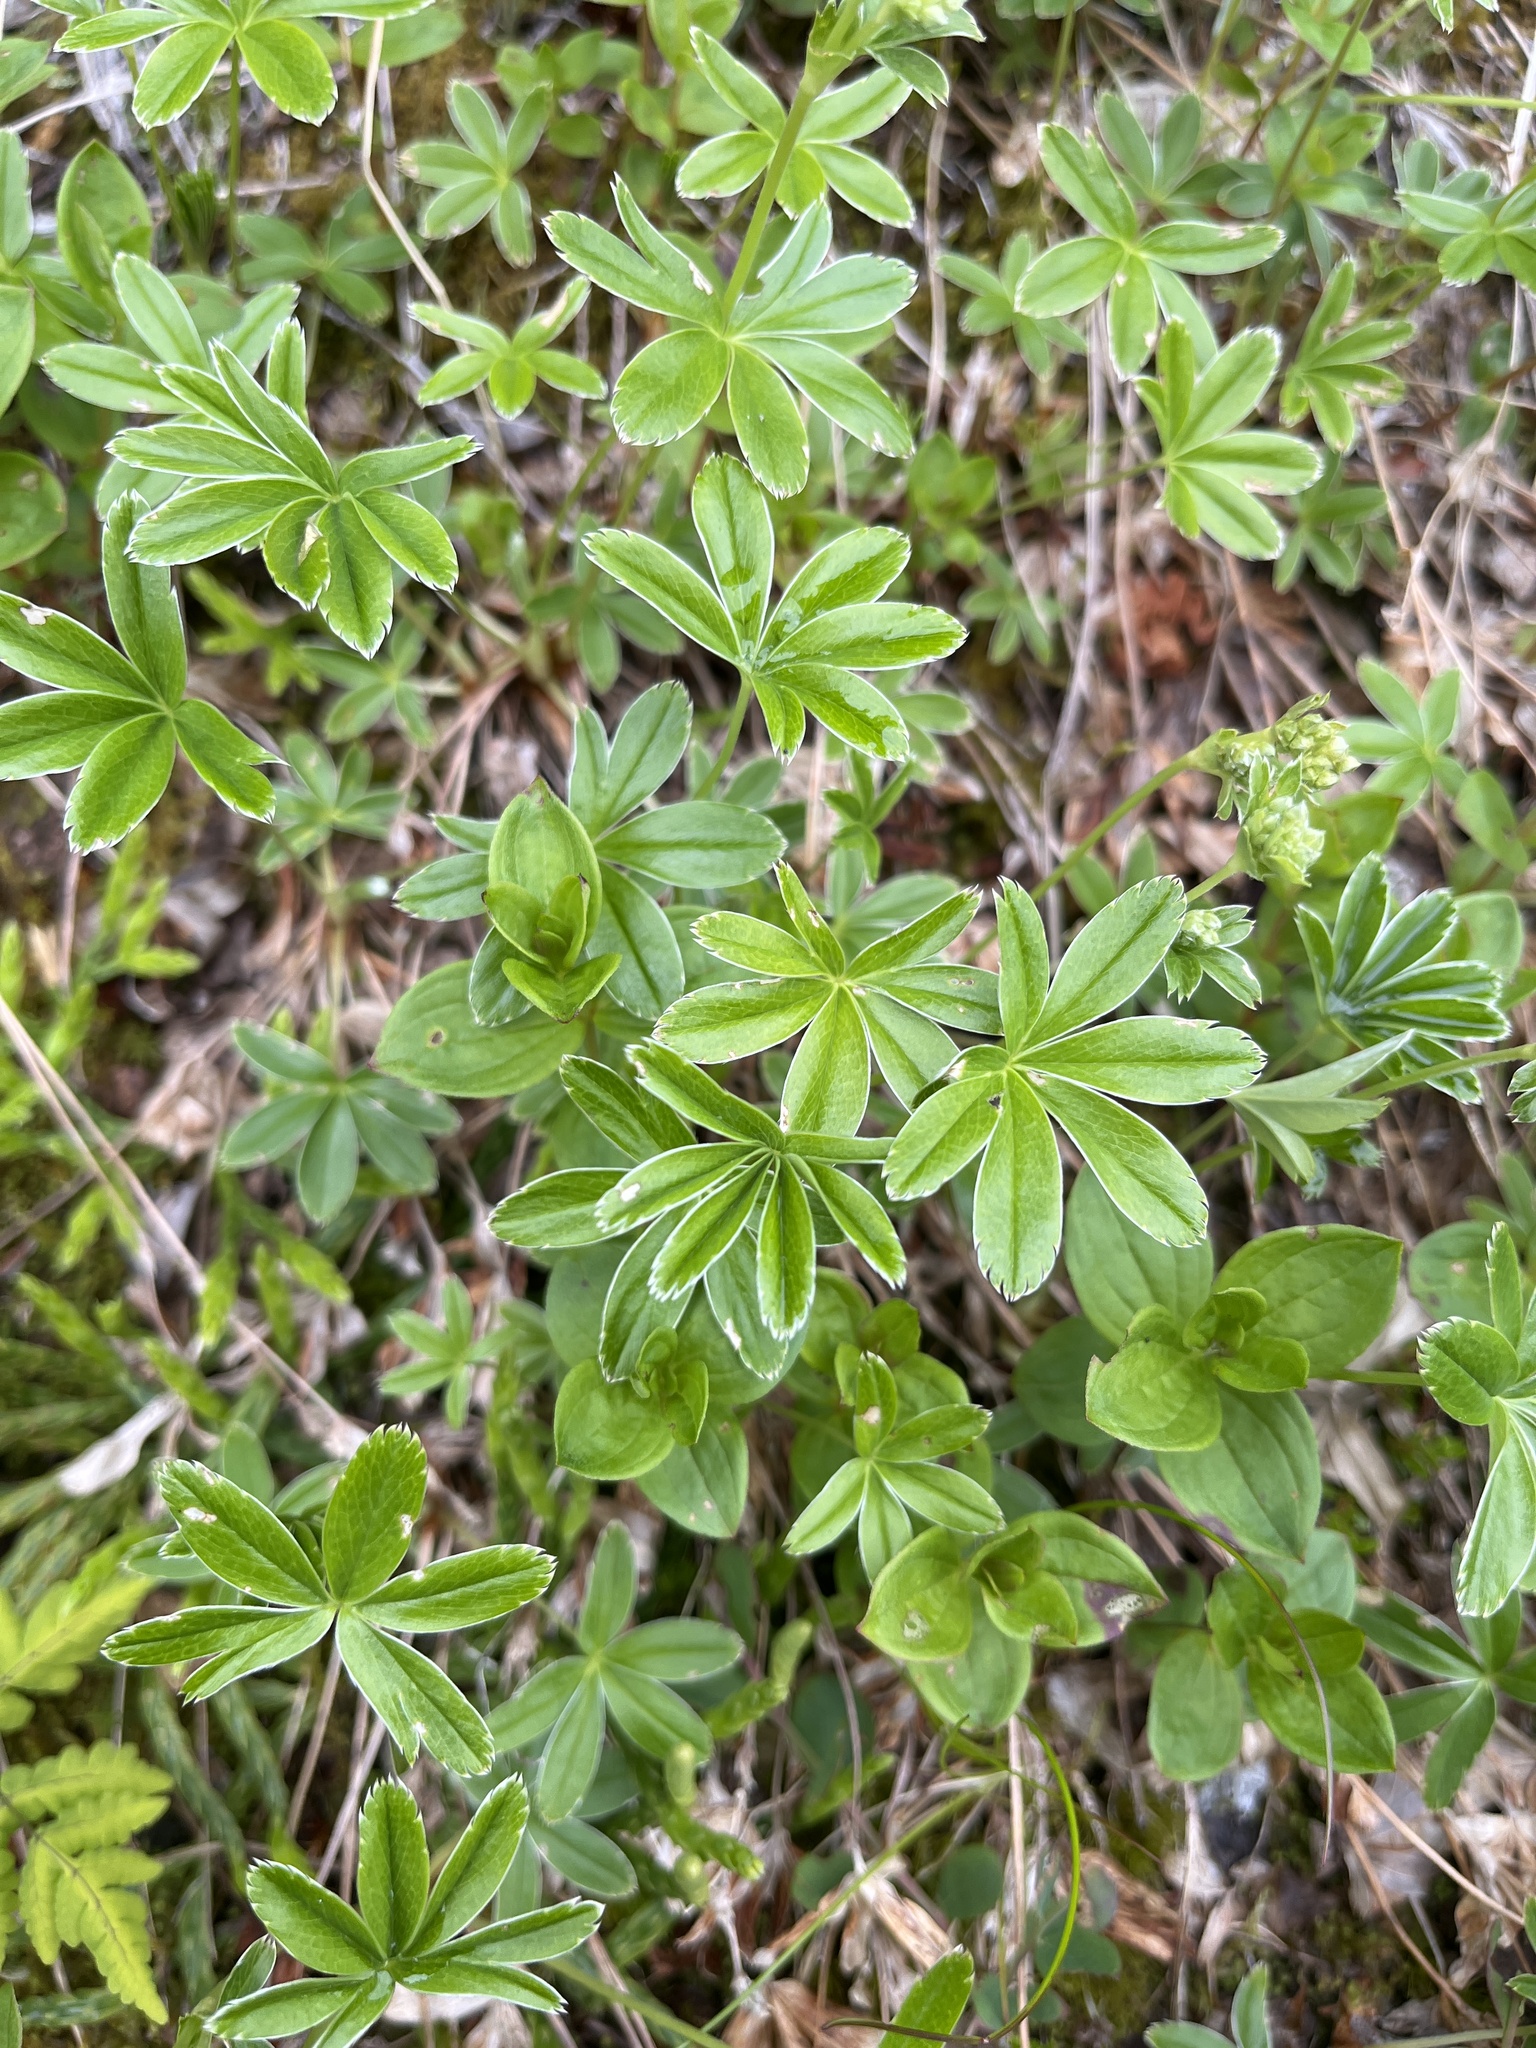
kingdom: Plantae
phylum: Tracheophyta
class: Magnoliopsida
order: Rosales
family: Rosaceae
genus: Alchemilla
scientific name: Alchemilla alpina
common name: Alpine lady's-mantle
